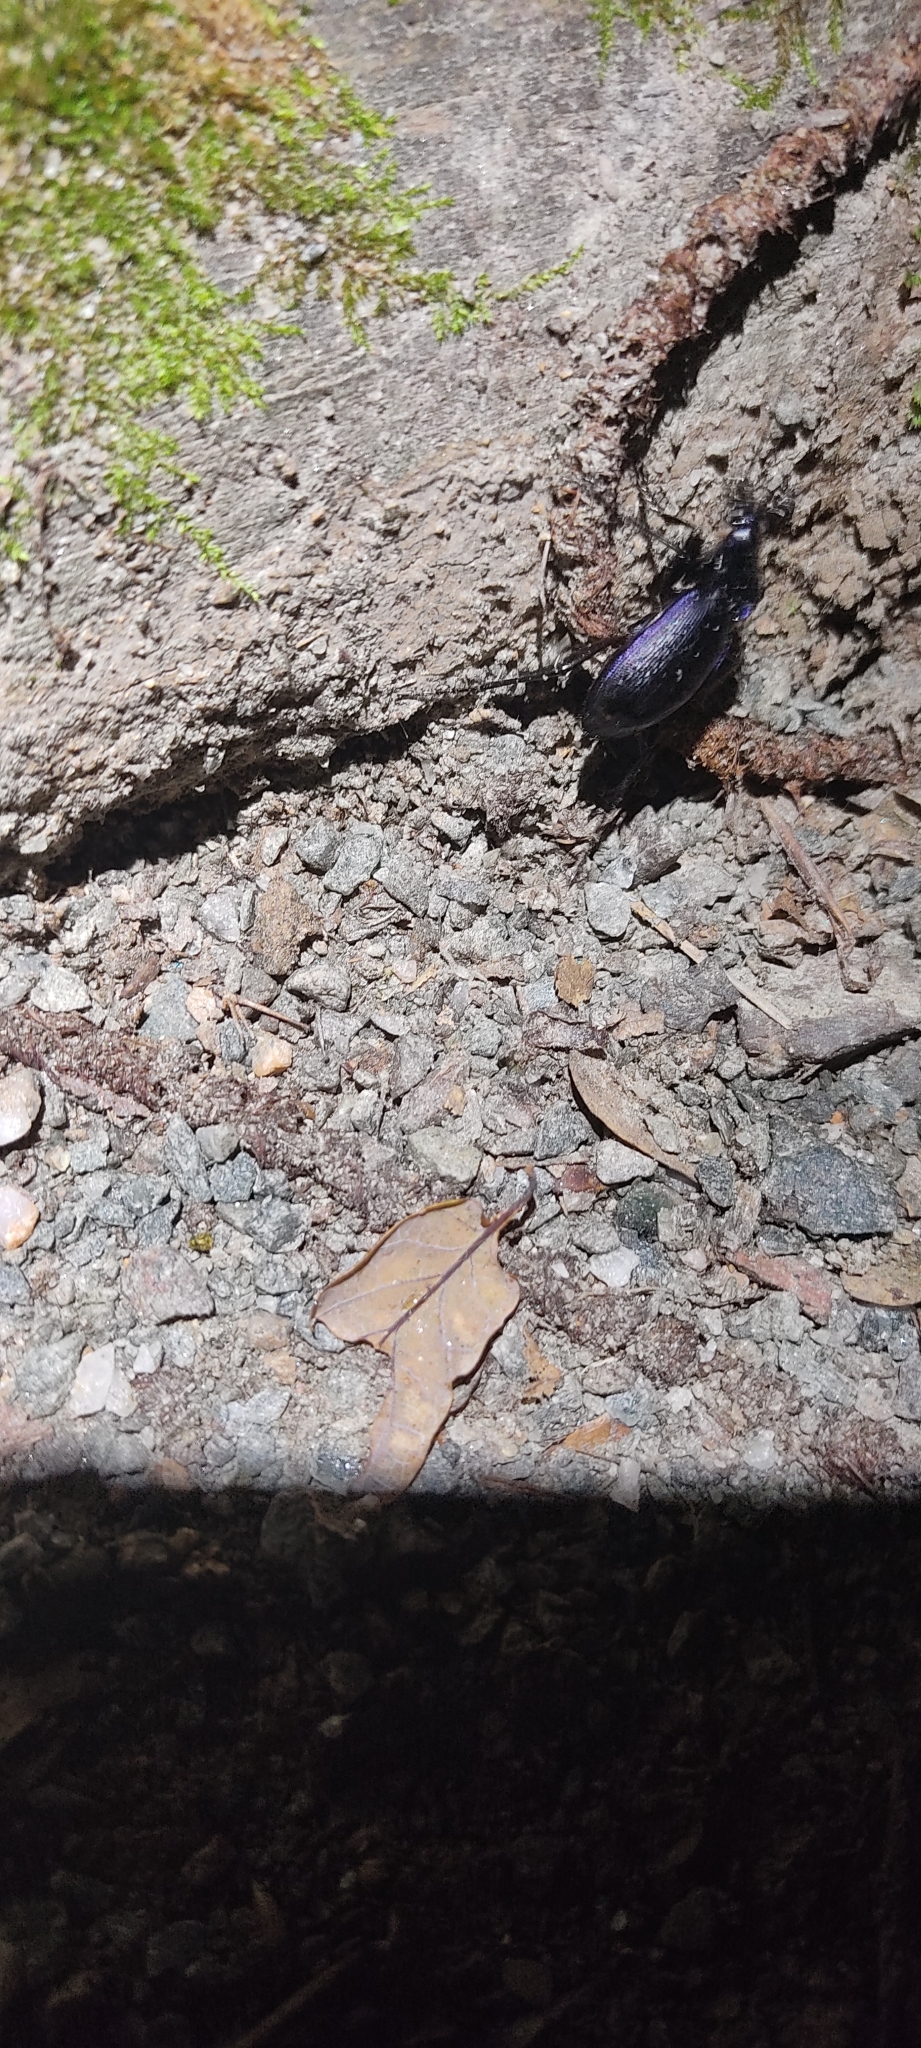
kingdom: Animalia
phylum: Arthropoda
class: Insecta
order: Coleoptera
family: Carabidae
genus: Carabus
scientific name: Carabus problematicus
